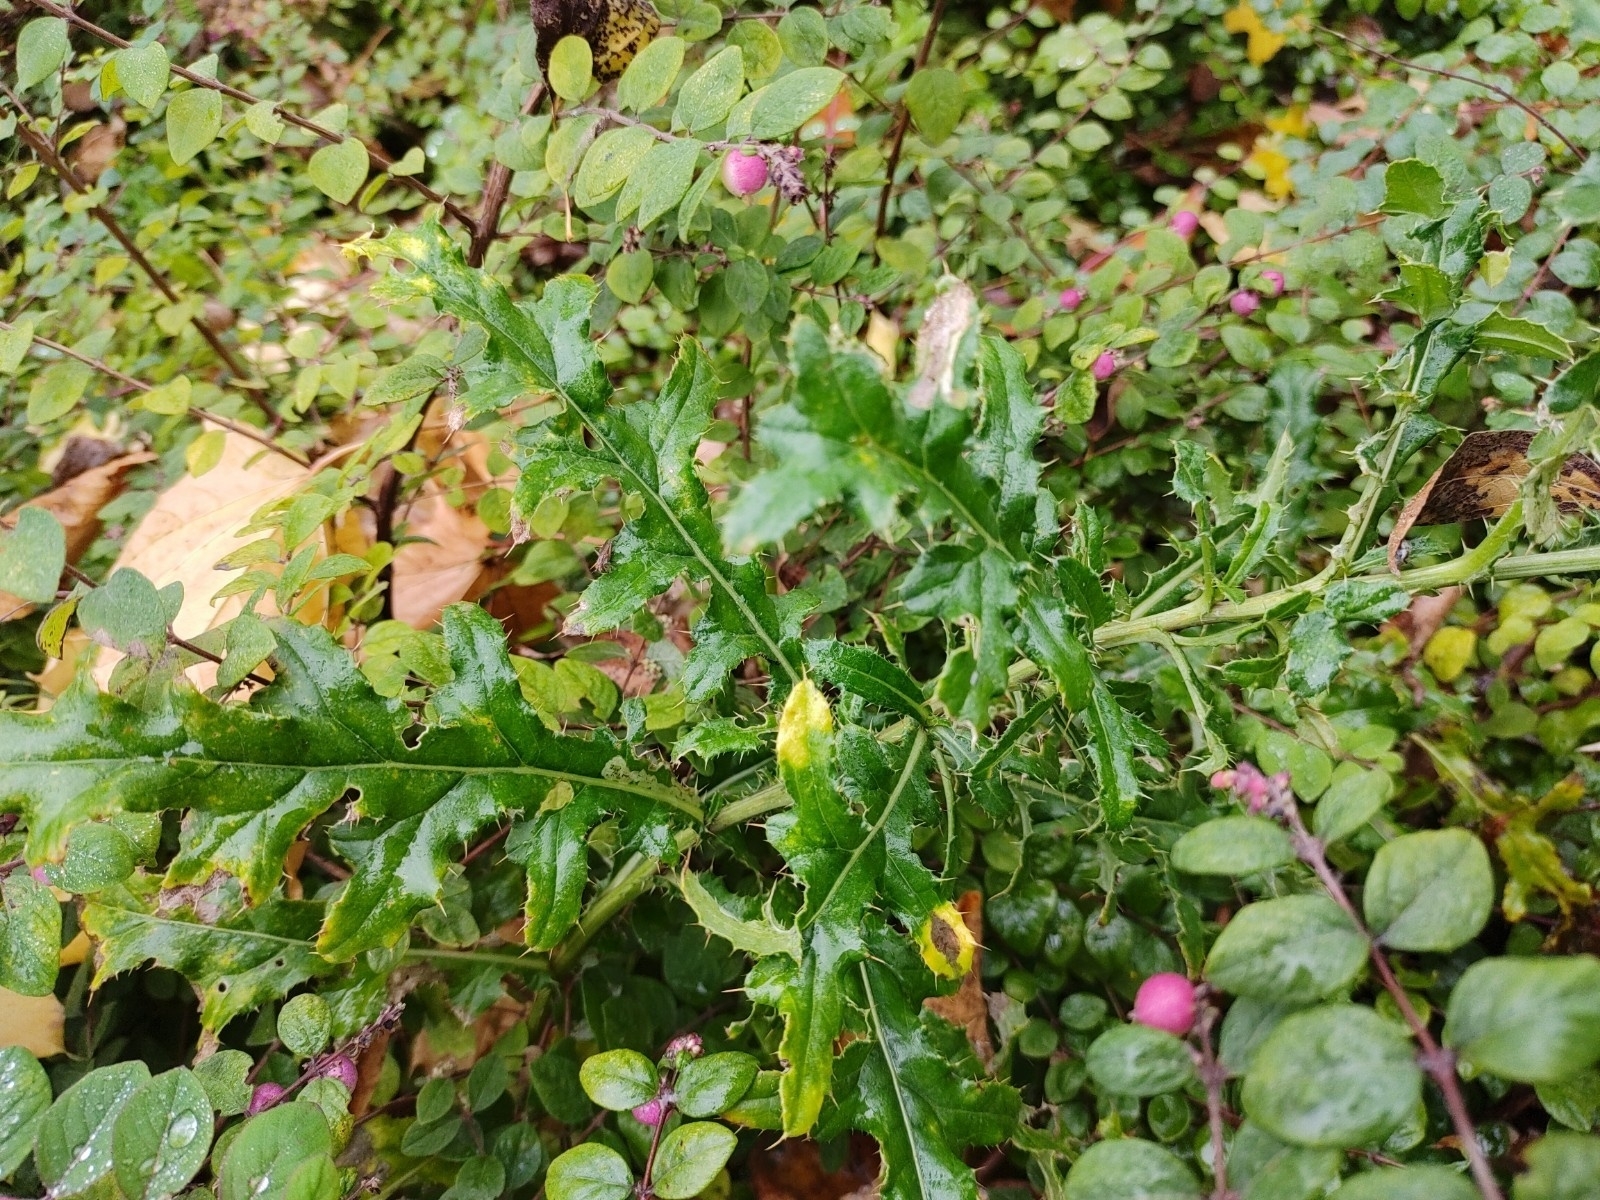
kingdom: Plantae
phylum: Tracheophyta
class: Magnoliopsida
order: Asterales
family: Asteraceae
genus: Cirsium
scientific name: Cirsium arvense
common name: Creeping thistle
